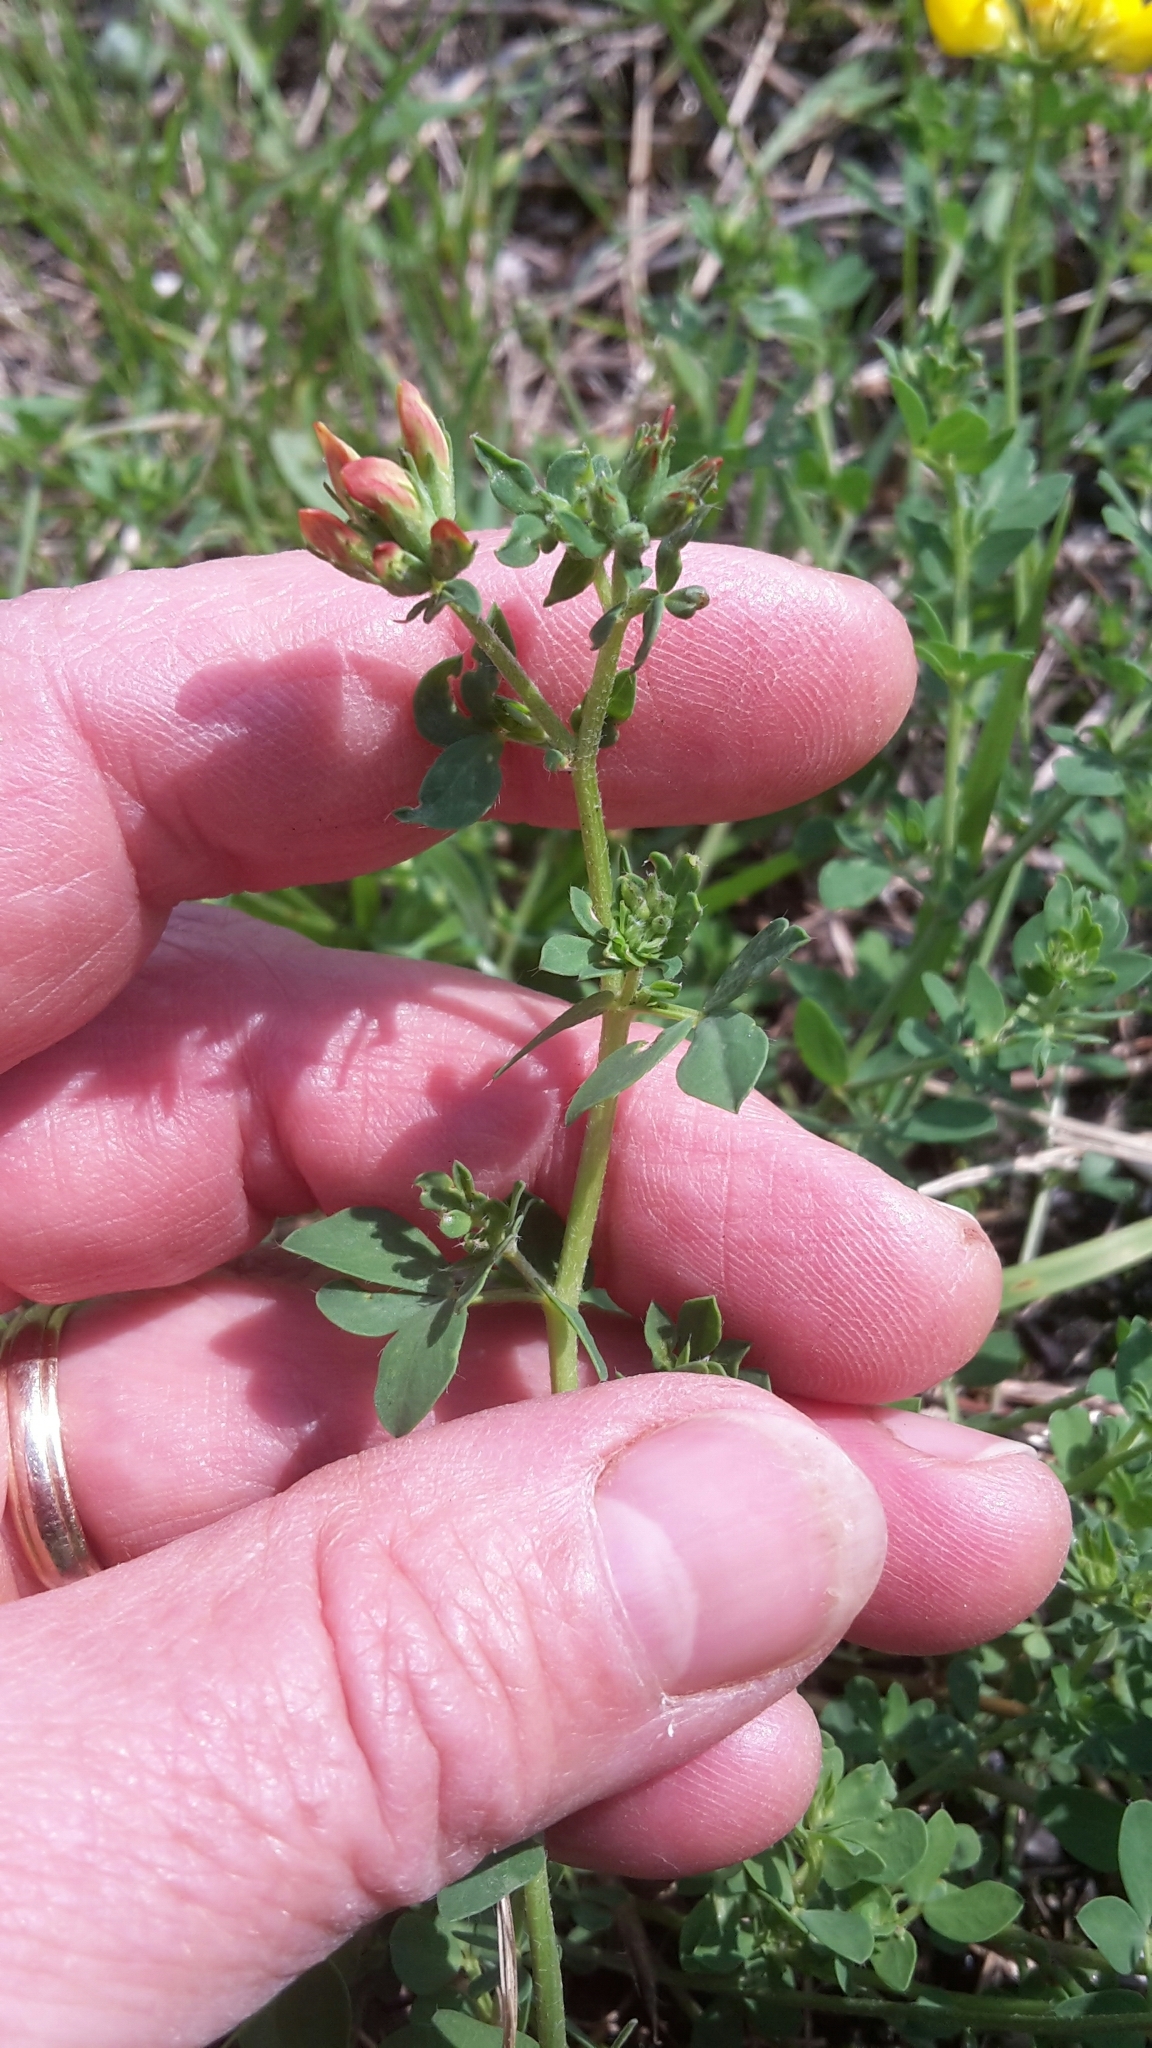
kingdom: Plantae
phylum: Tracheophyta
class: Magnoliopsida
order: Fabales
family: Fabaceae
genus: Lotus
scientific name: Lotus corniculatus
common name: Common bird's-foot-trefoil
